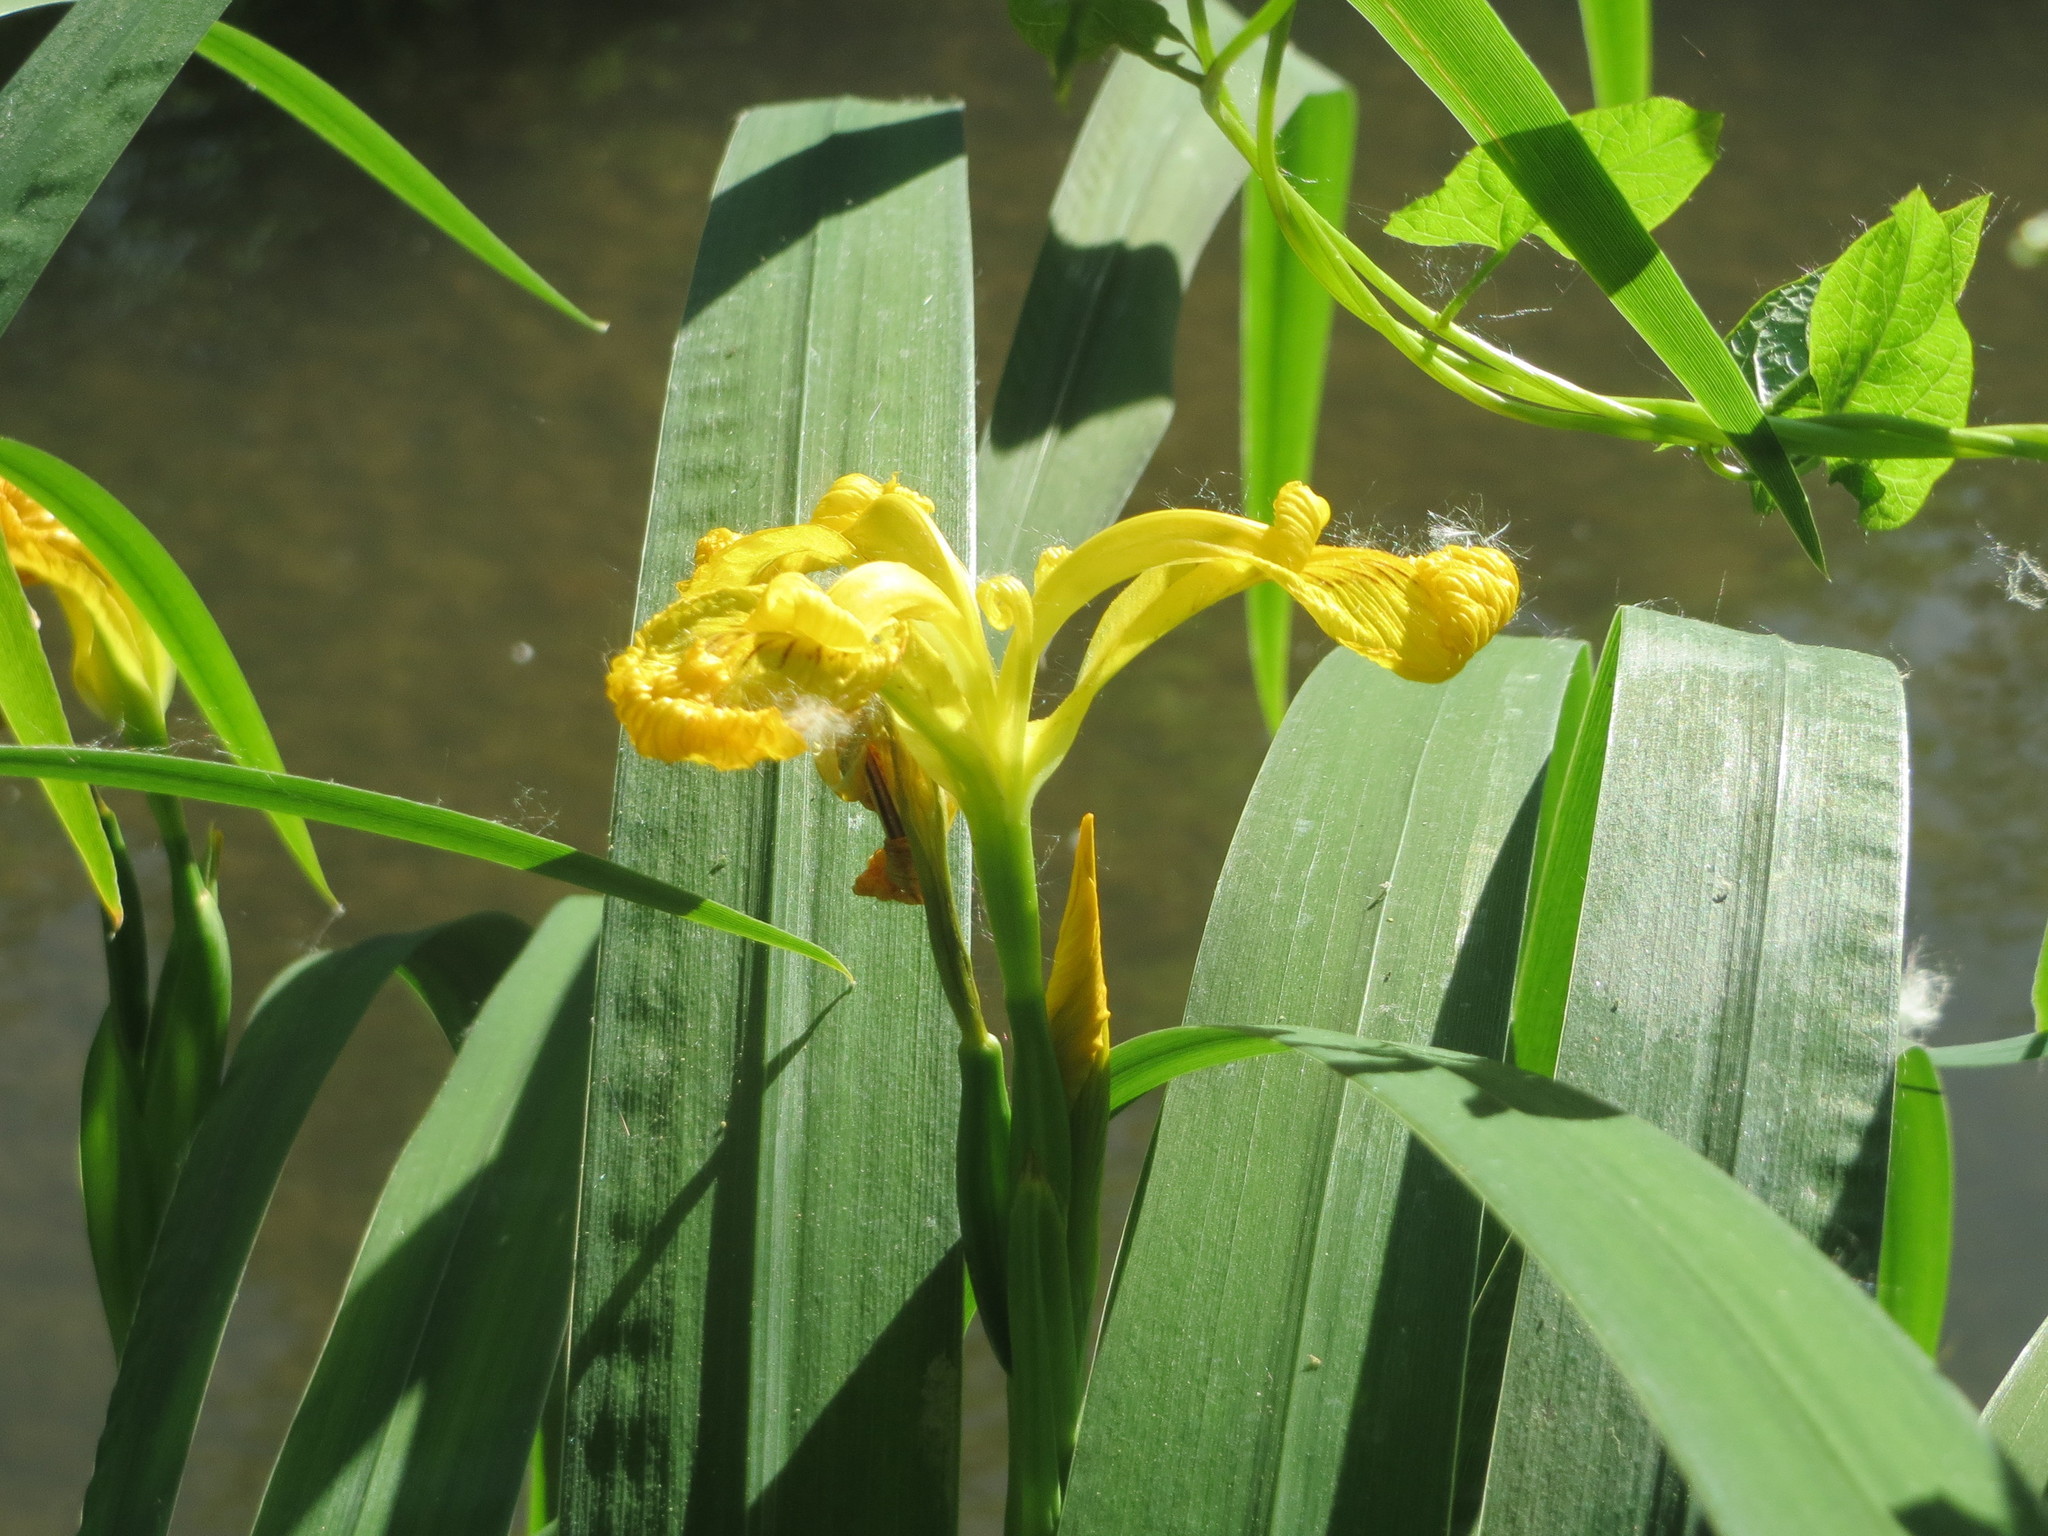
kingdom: Plantae
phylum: Tracheophyta
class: Liliopsida
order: Asparagales
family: Iridaceae
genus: Iris
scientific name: Iris pseudacorus
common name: Yellow flag
